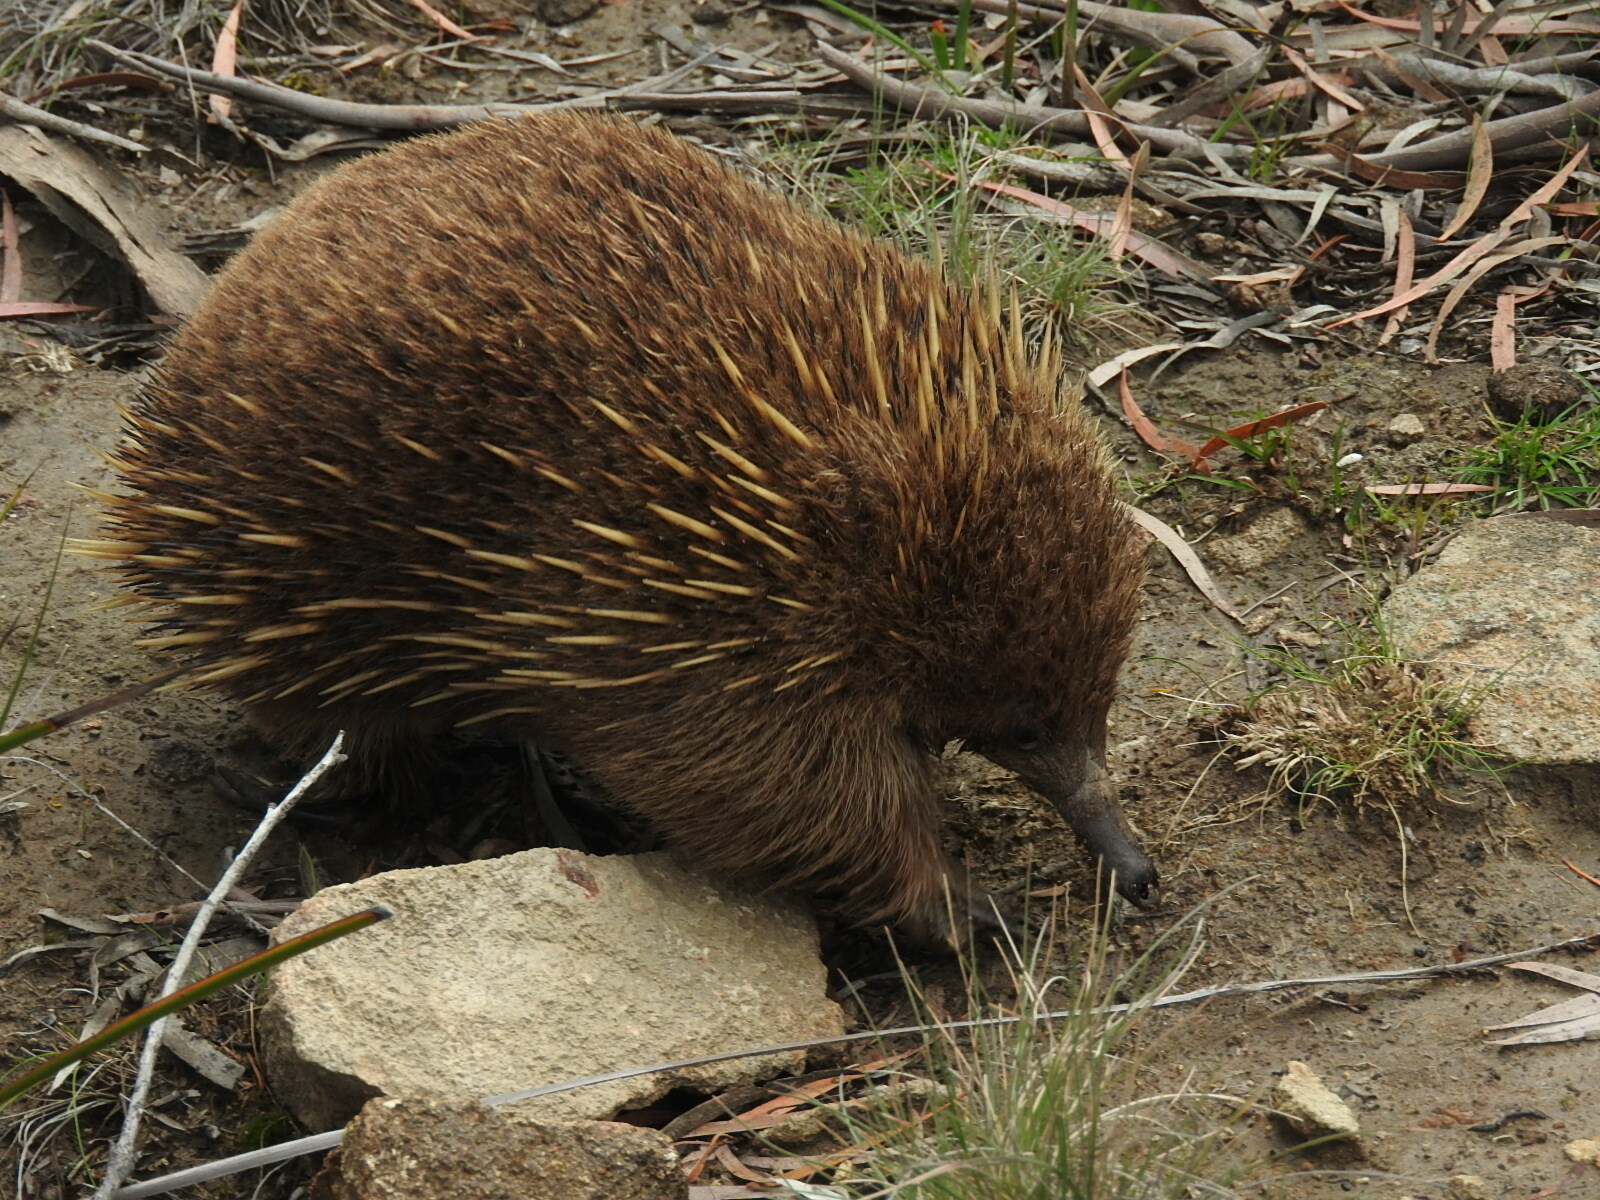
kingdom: Animalia
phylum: Chordata
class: Mammalia
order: Monotremata
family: Tachyglossidae
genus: Tachyglossus
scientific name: Tachyglossus aculeatus
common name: Short-beaked echidna
